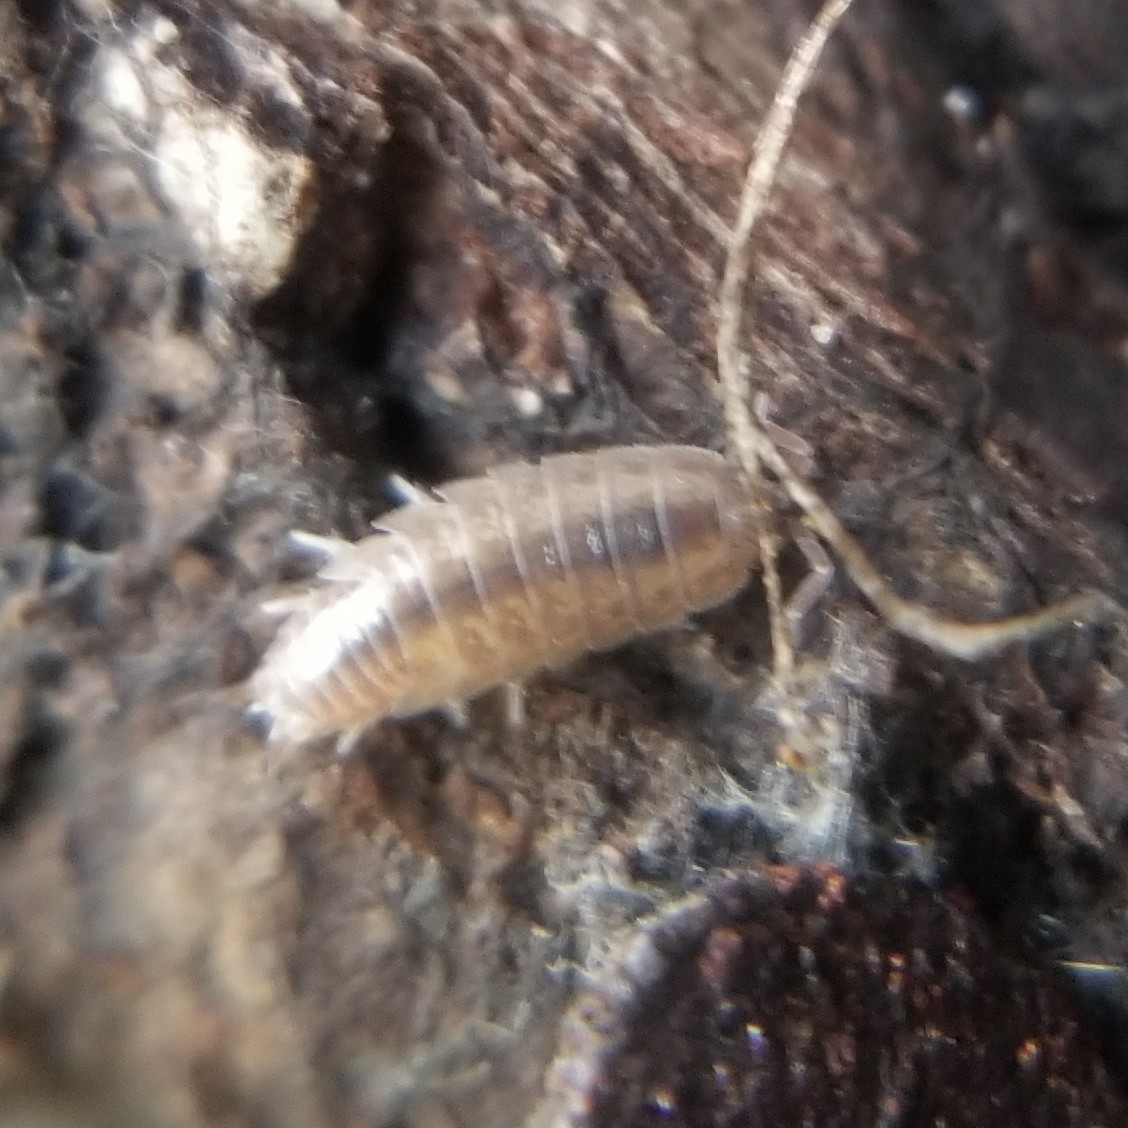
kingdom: Animalia
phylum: Arthropoda
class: Malacostraca
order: Isopoda
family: Platyarthridae
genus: Niambia
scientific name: Niambia capensis
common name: Isopod
